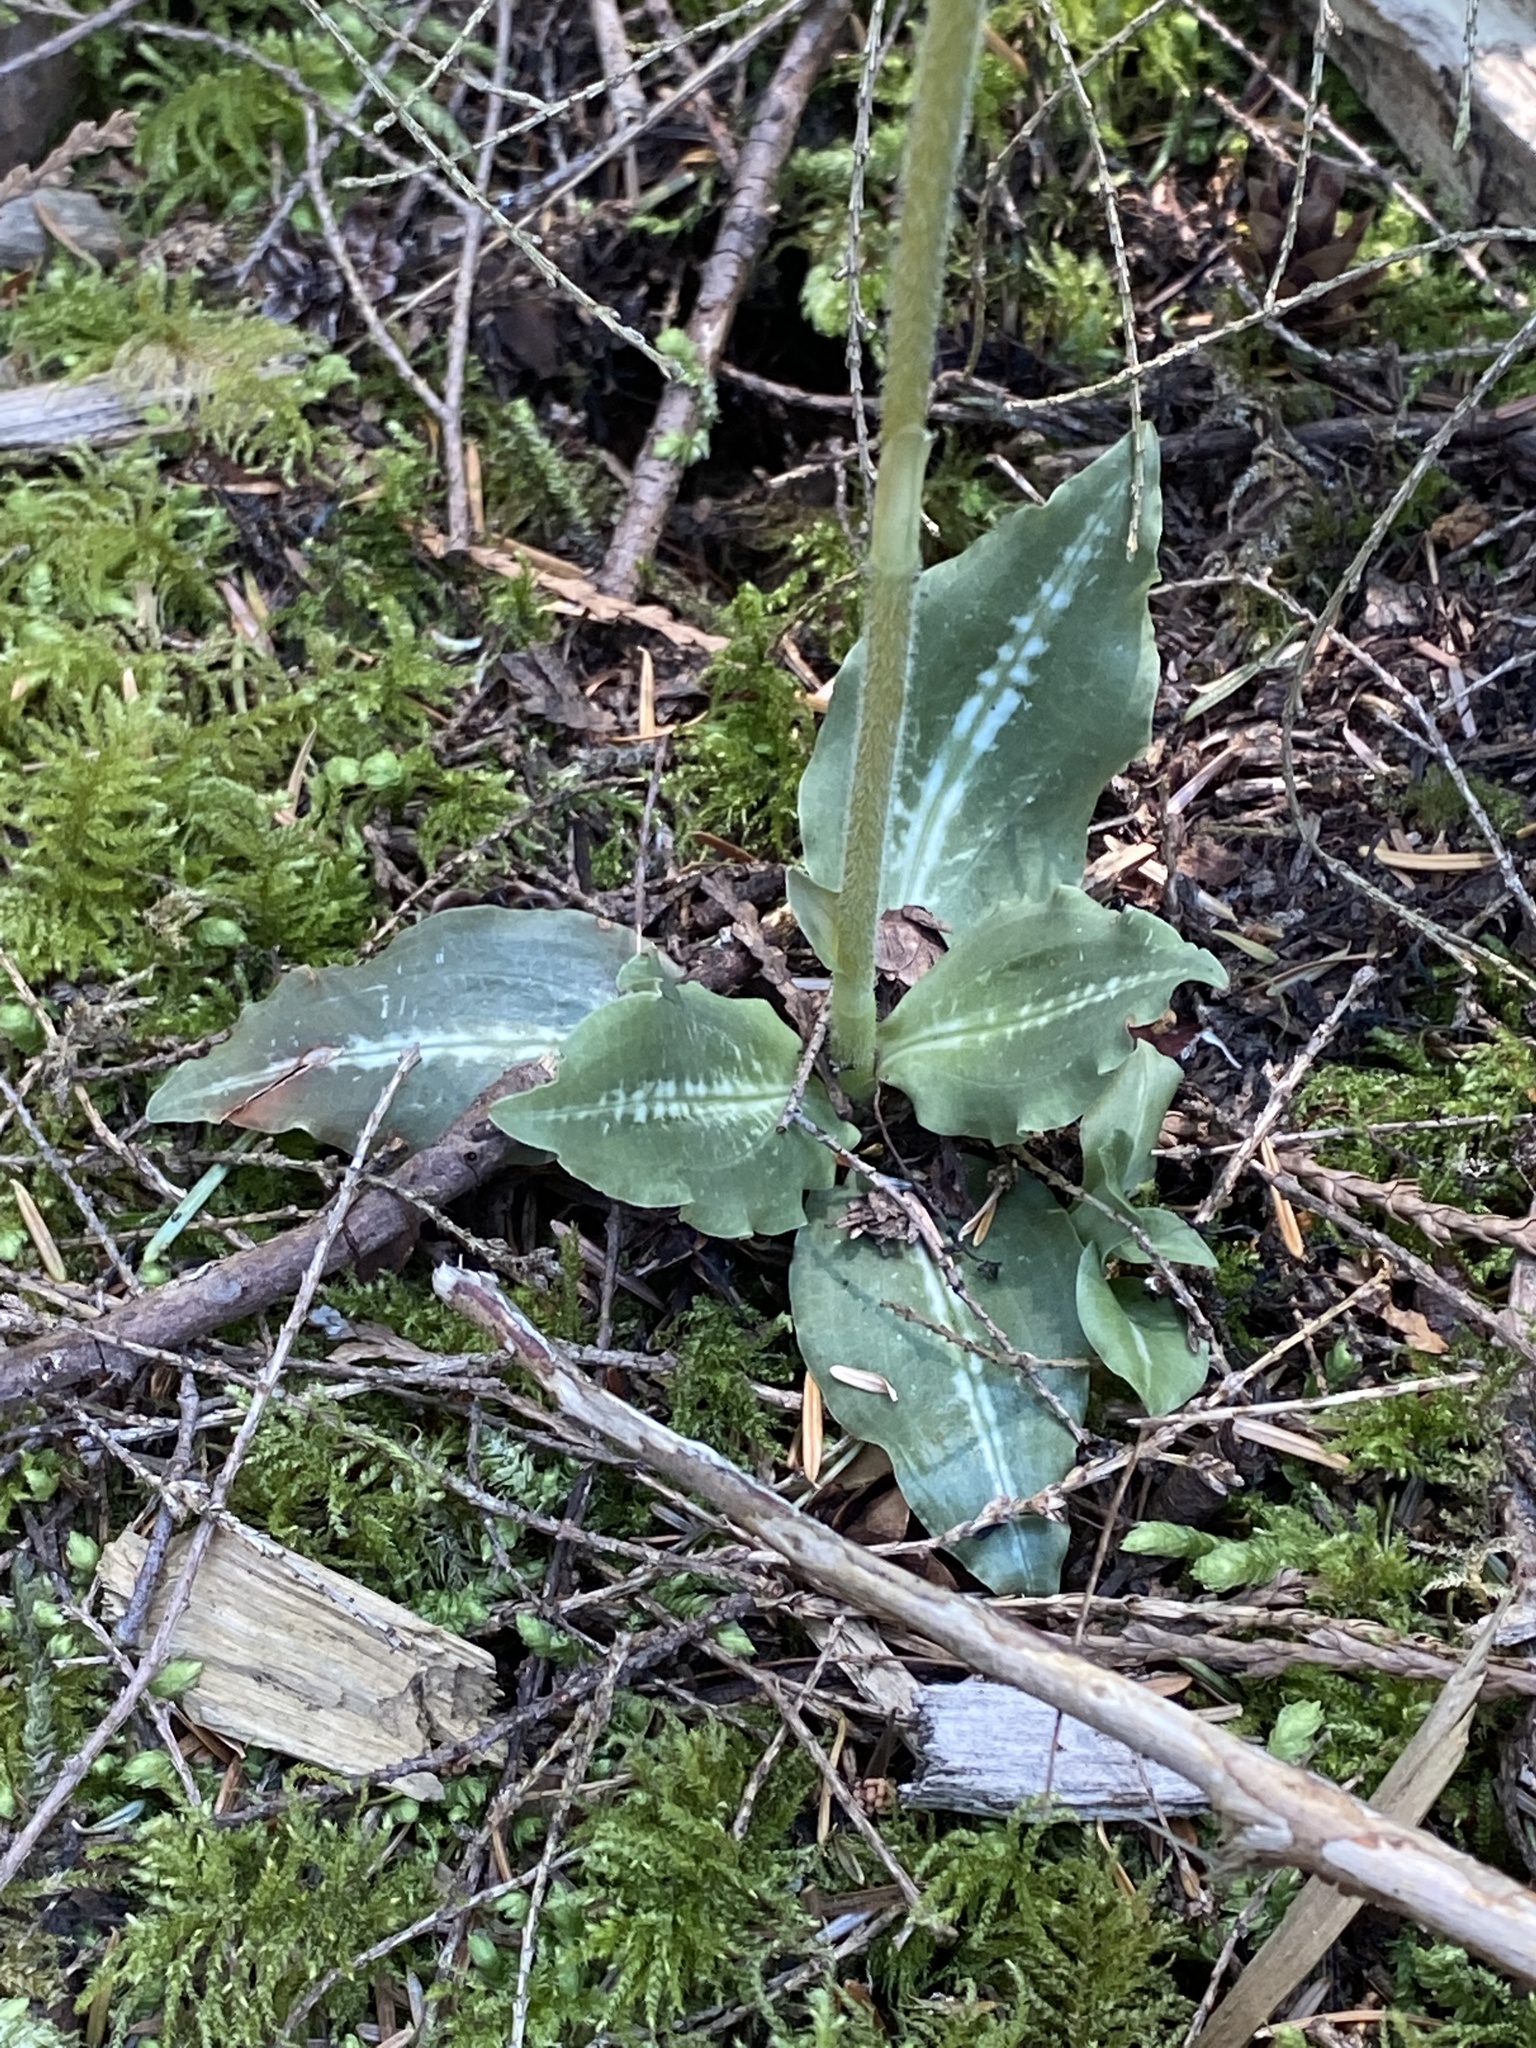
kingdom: Plantae
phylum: Tracheophyta
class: Liliopsida
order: Asparagales
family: Orchidaceae
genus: Goodyera
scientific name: Goodyera oblongifolia
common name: Giant rattlesnake-plantain
